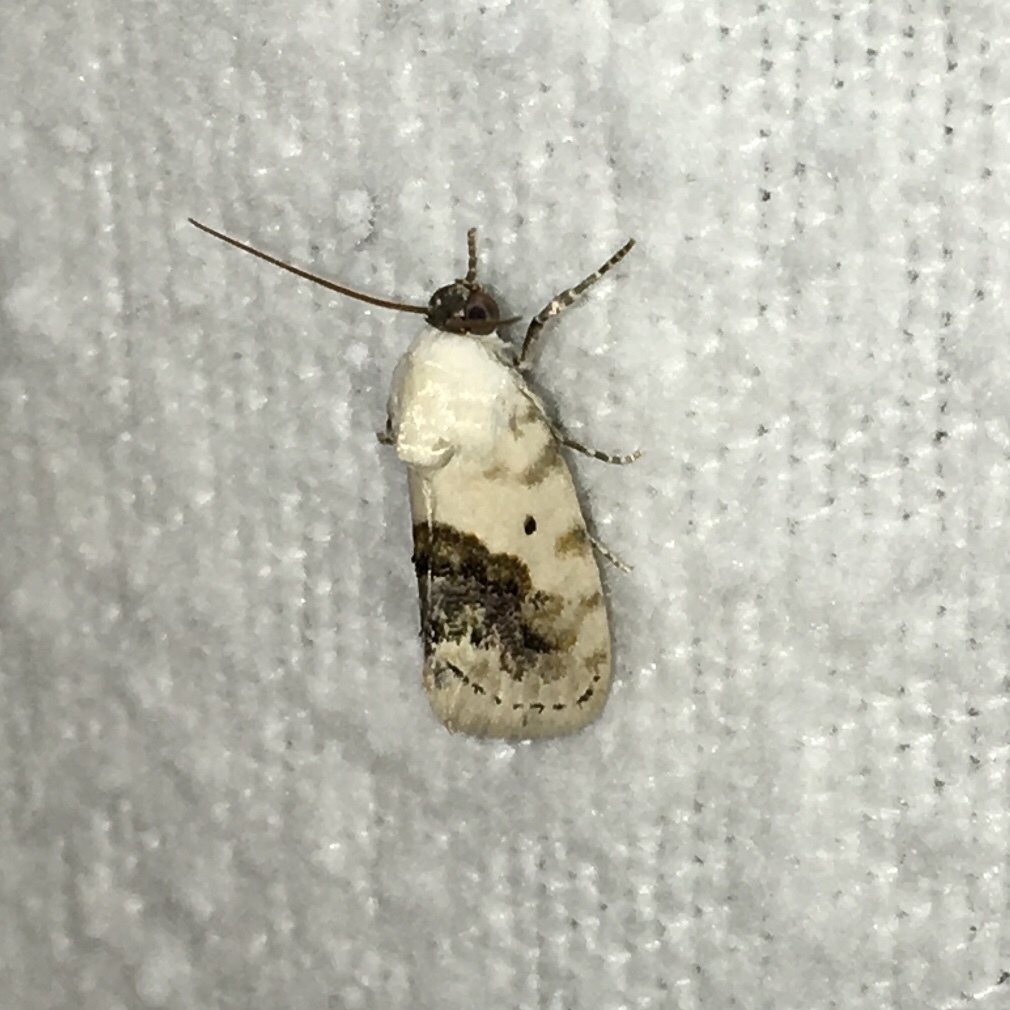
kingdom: Animalia
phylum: Arthropoda
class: Insecta
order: Lepidoptera
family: Noctuidae
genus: Acontia
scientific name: Acontia erastrioides
